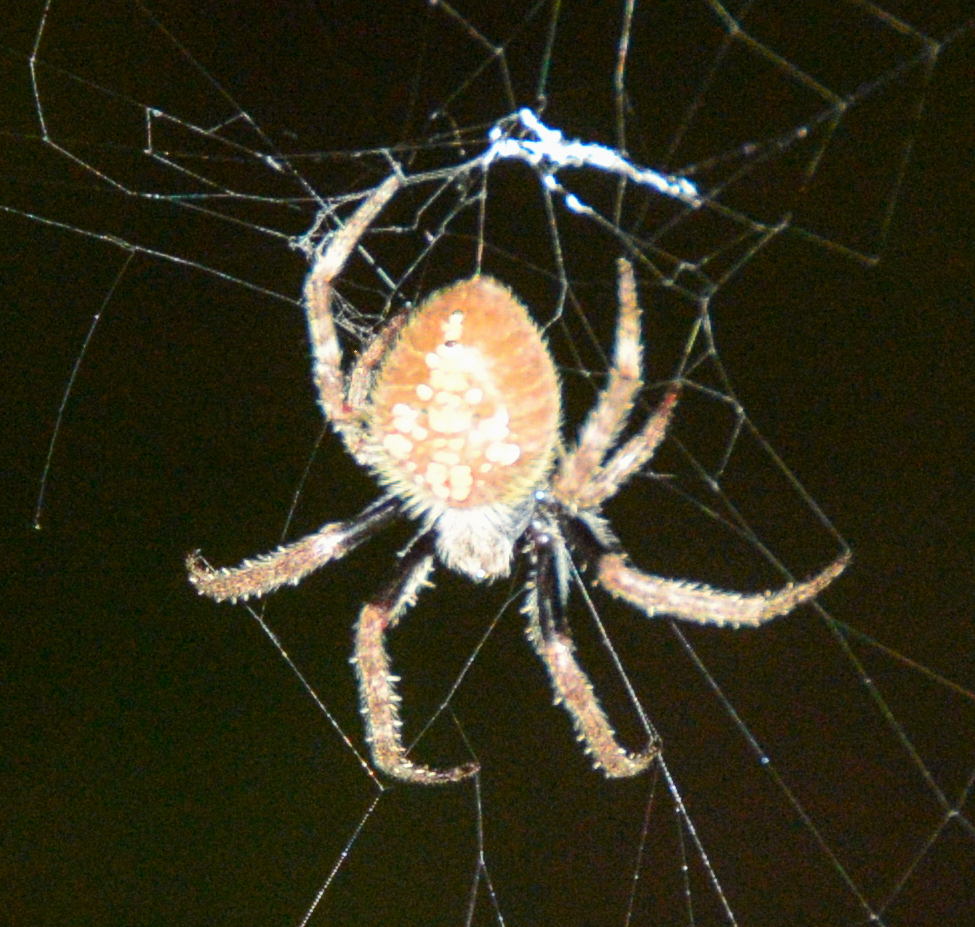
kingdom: Animalia
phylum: Arthropoda
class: Arachnida
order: Araneae
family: Araneidae
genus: Eriophora
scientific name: Eriophora ravilla
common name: Orb weavers
